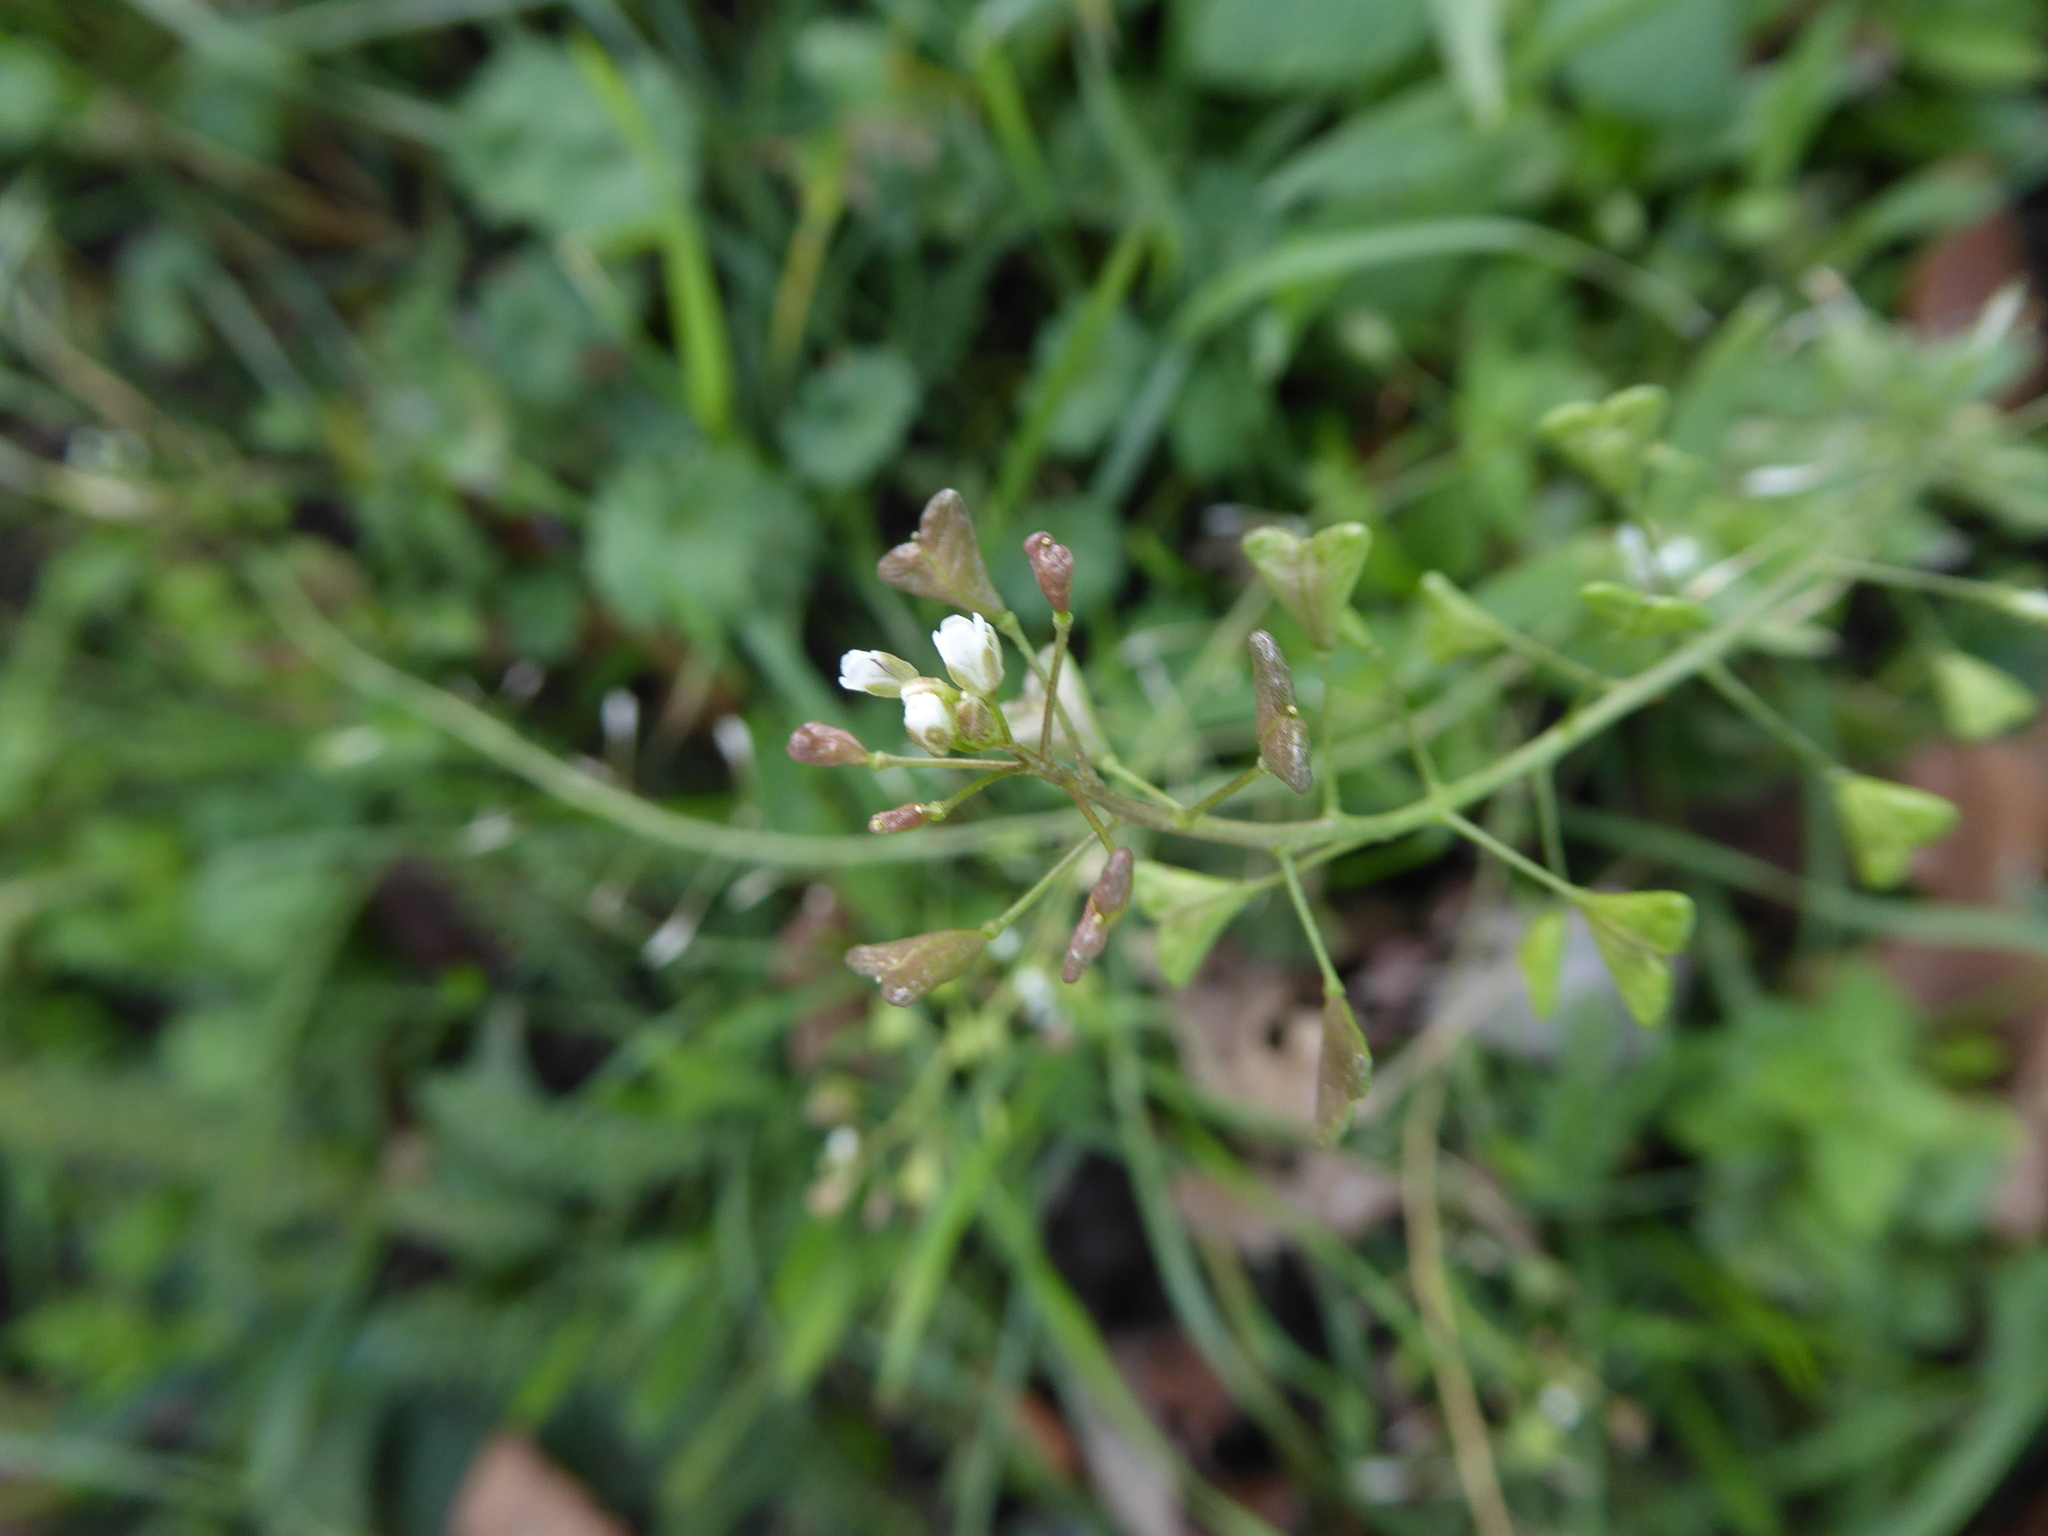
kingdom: Plantae
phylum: Tracheophyta
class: Magnoliopsida
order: Brassicales
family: Brassicaceae
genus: Capsella
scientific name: Capsella bursa-pastoris
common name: Shepherd's purse
